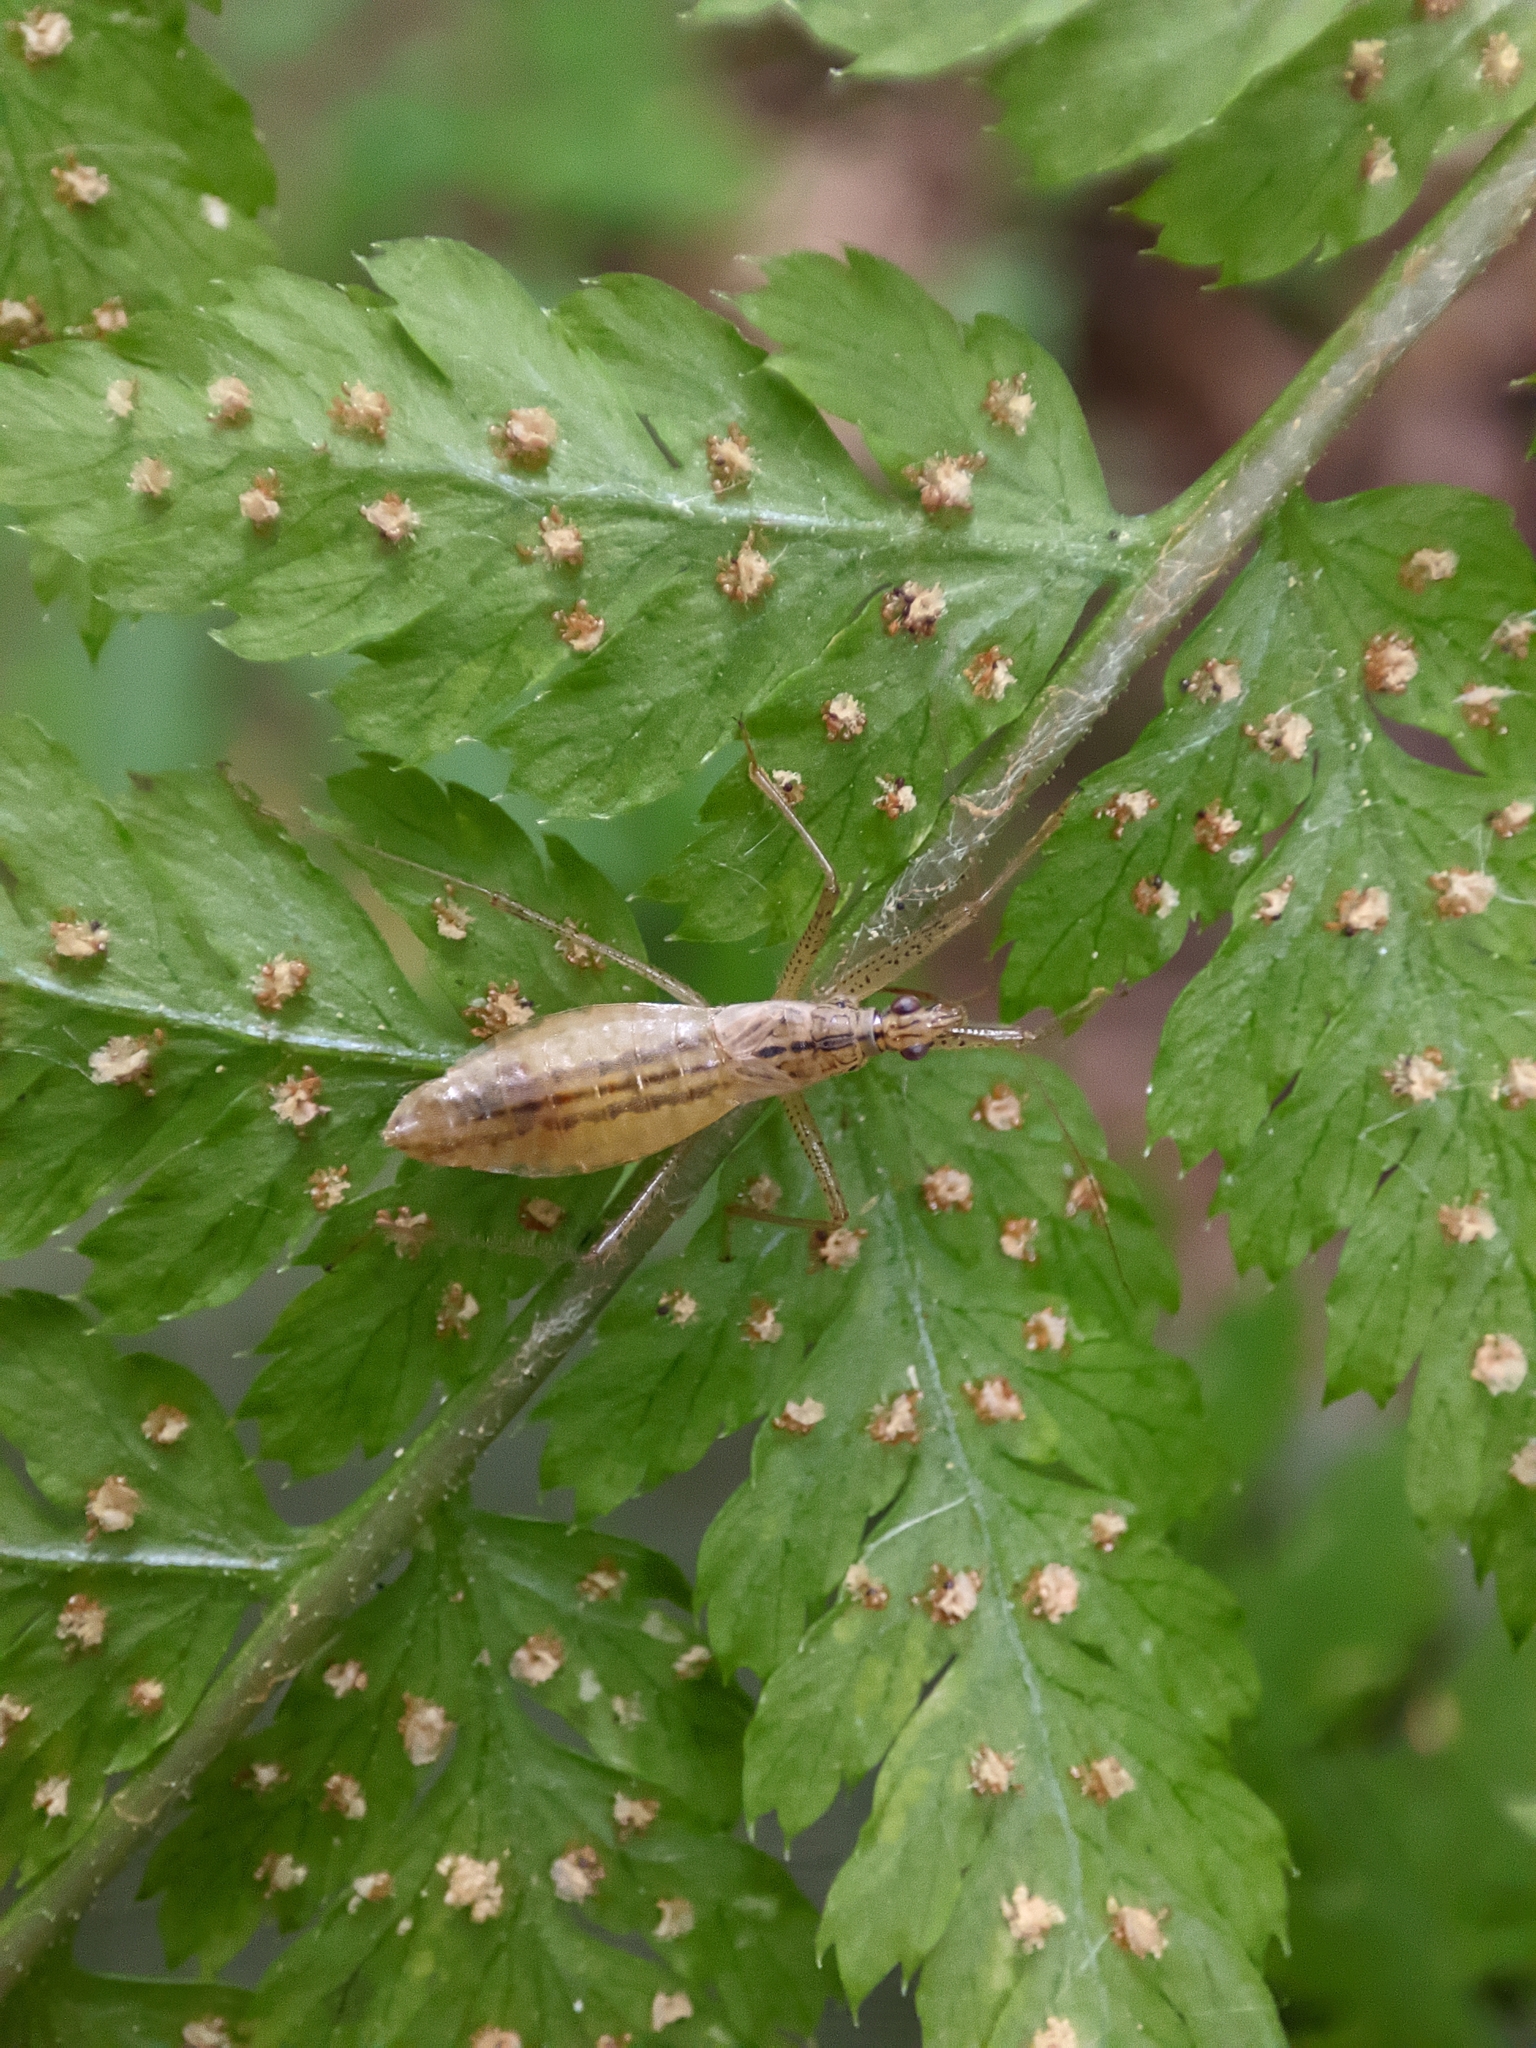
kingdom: Animalia
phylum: Arthropoda
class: Insecta
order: Hemiptera
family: Nabidae
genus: Nabis
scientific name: Nabis limbatus
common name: Marsh damselbug
